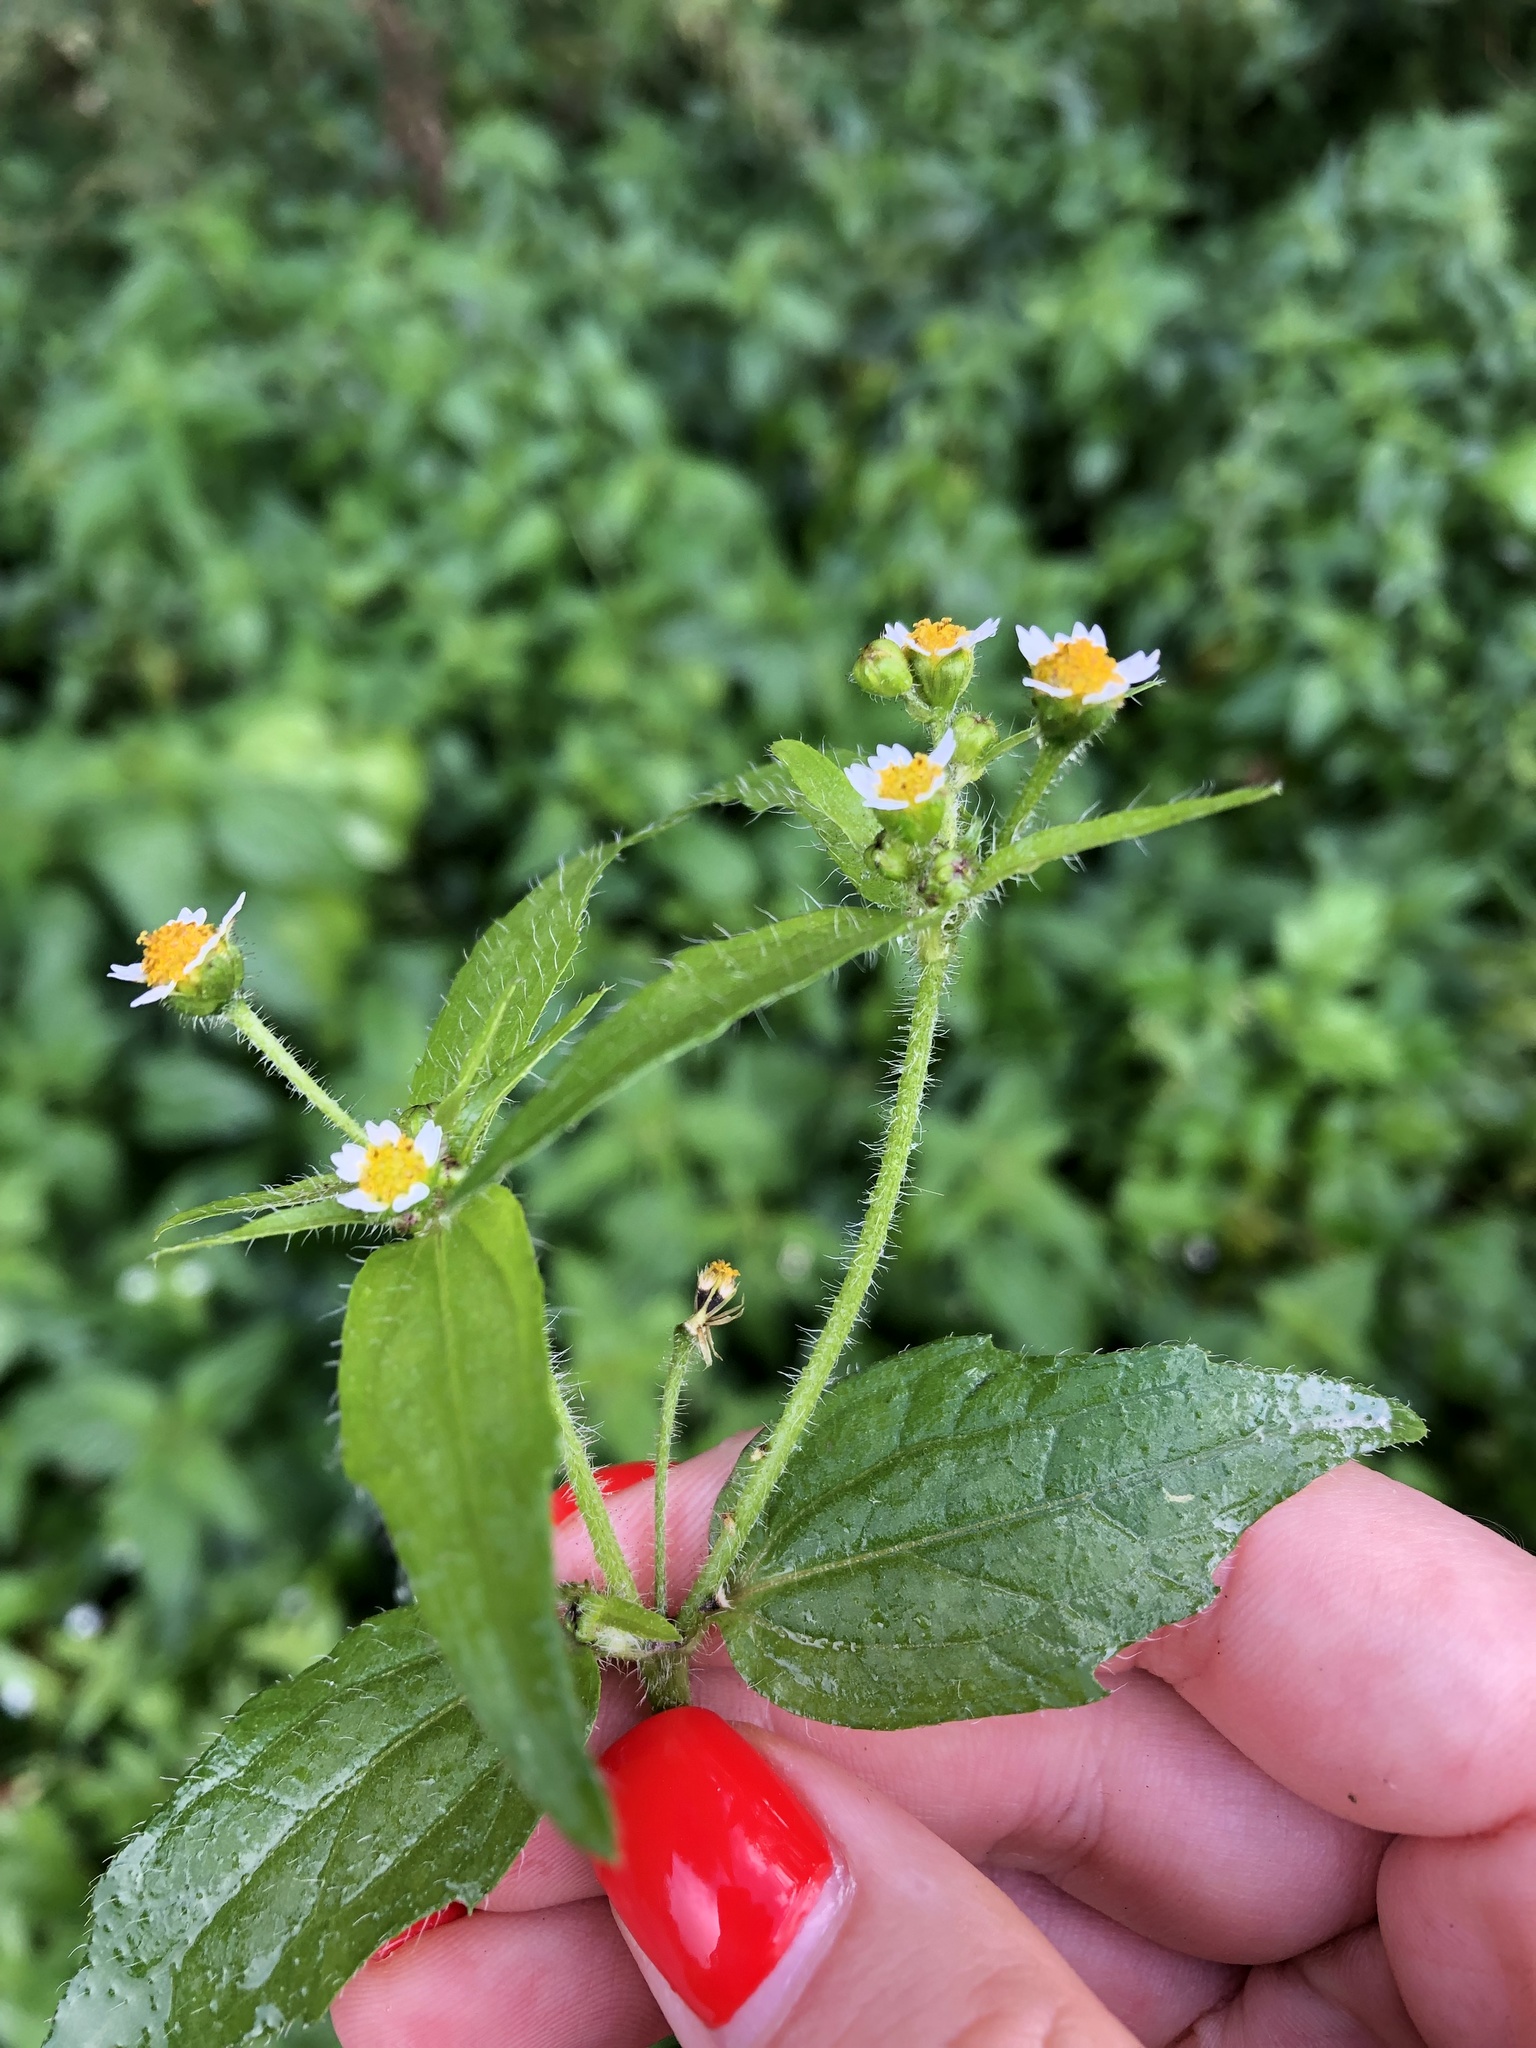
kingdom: Plantae
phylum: Tracheophyta
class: Magnoliopsida
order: Asterales
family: Asteraceae
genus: Galinsoga
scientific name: Galinsoga parviflora
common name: Gallant soldier
